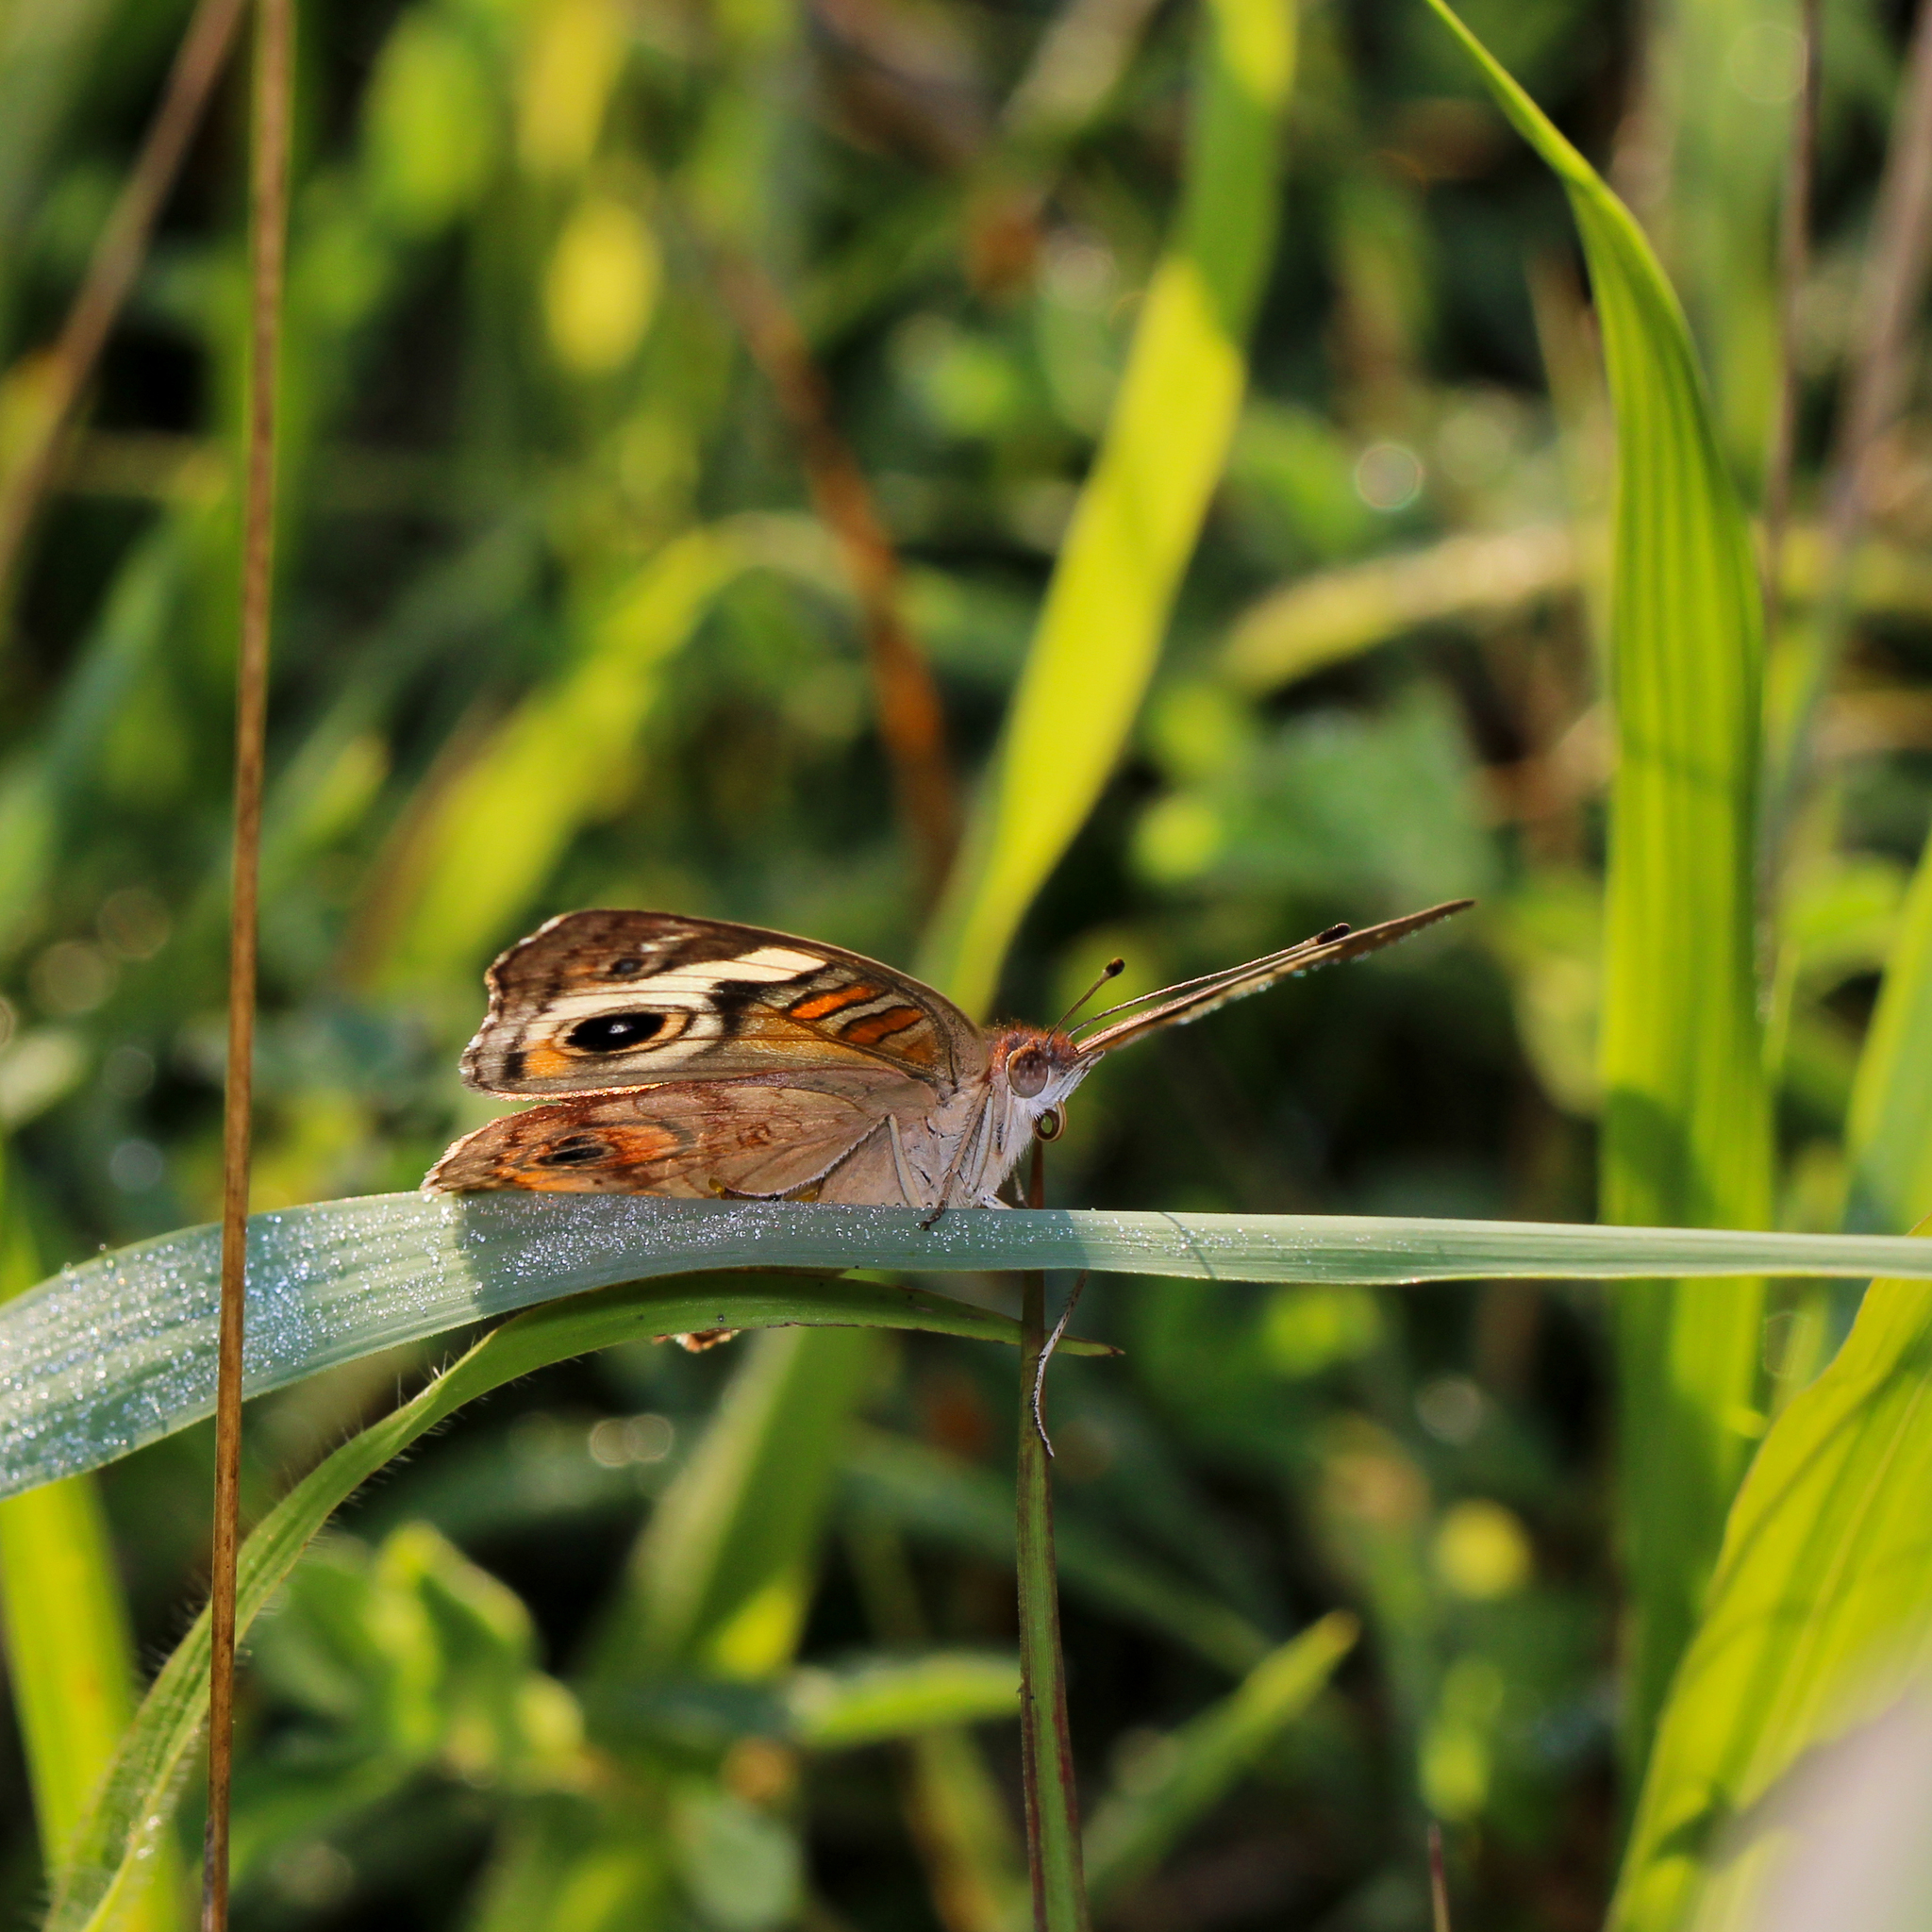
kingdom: Animalia
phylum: Arthropoda
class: Insecta
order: Lepidoptera
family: Nymphalidae
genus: Junonia
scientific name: Junonia coenia
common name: Common buckeye
